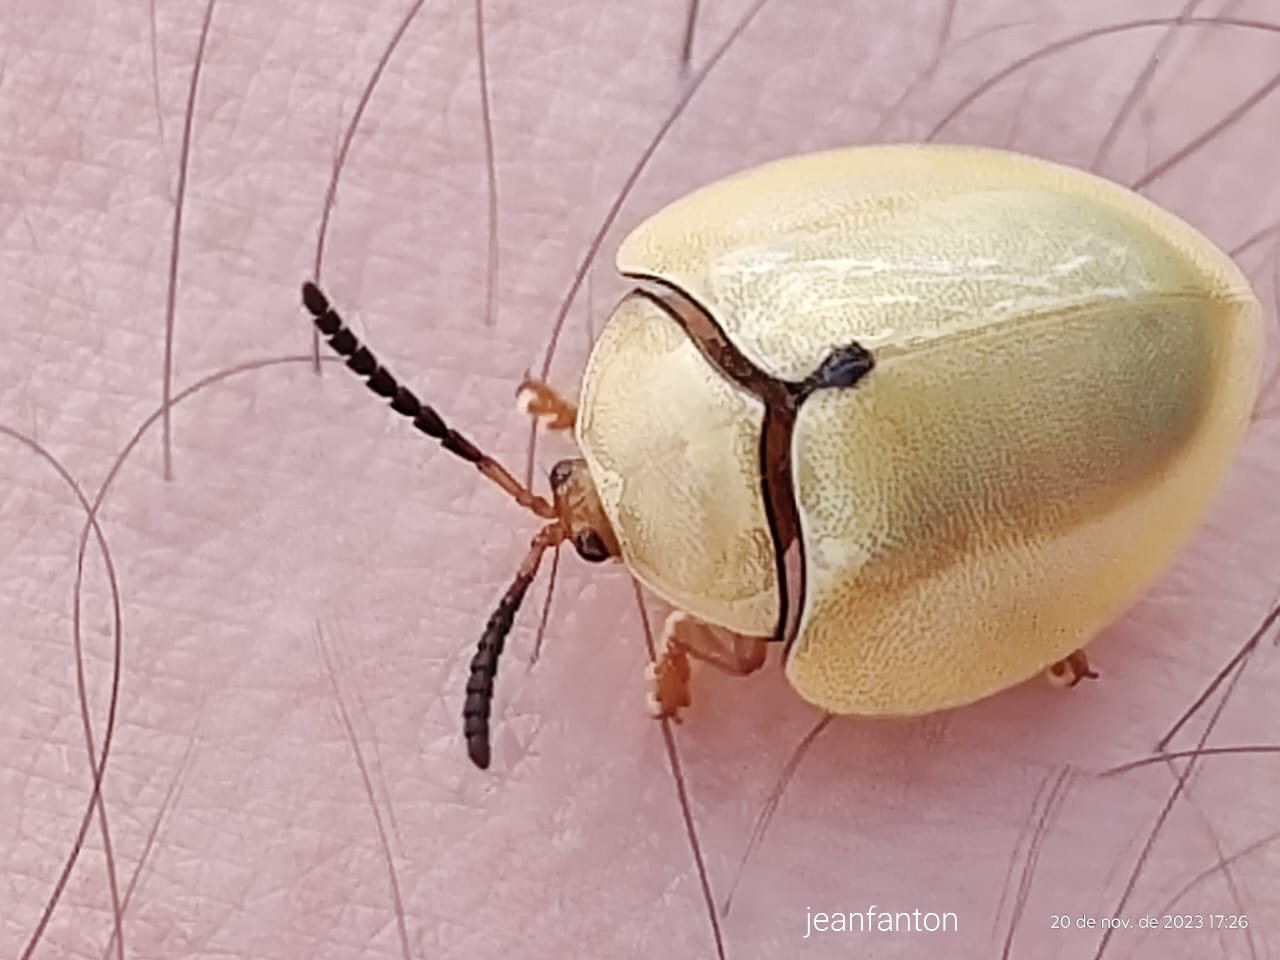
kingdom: Animalia
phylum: Arthropoda
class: Insecta
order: Coleoptera
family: Chrysomelidae
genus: Paraselenis
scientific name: Paraselenis flava
